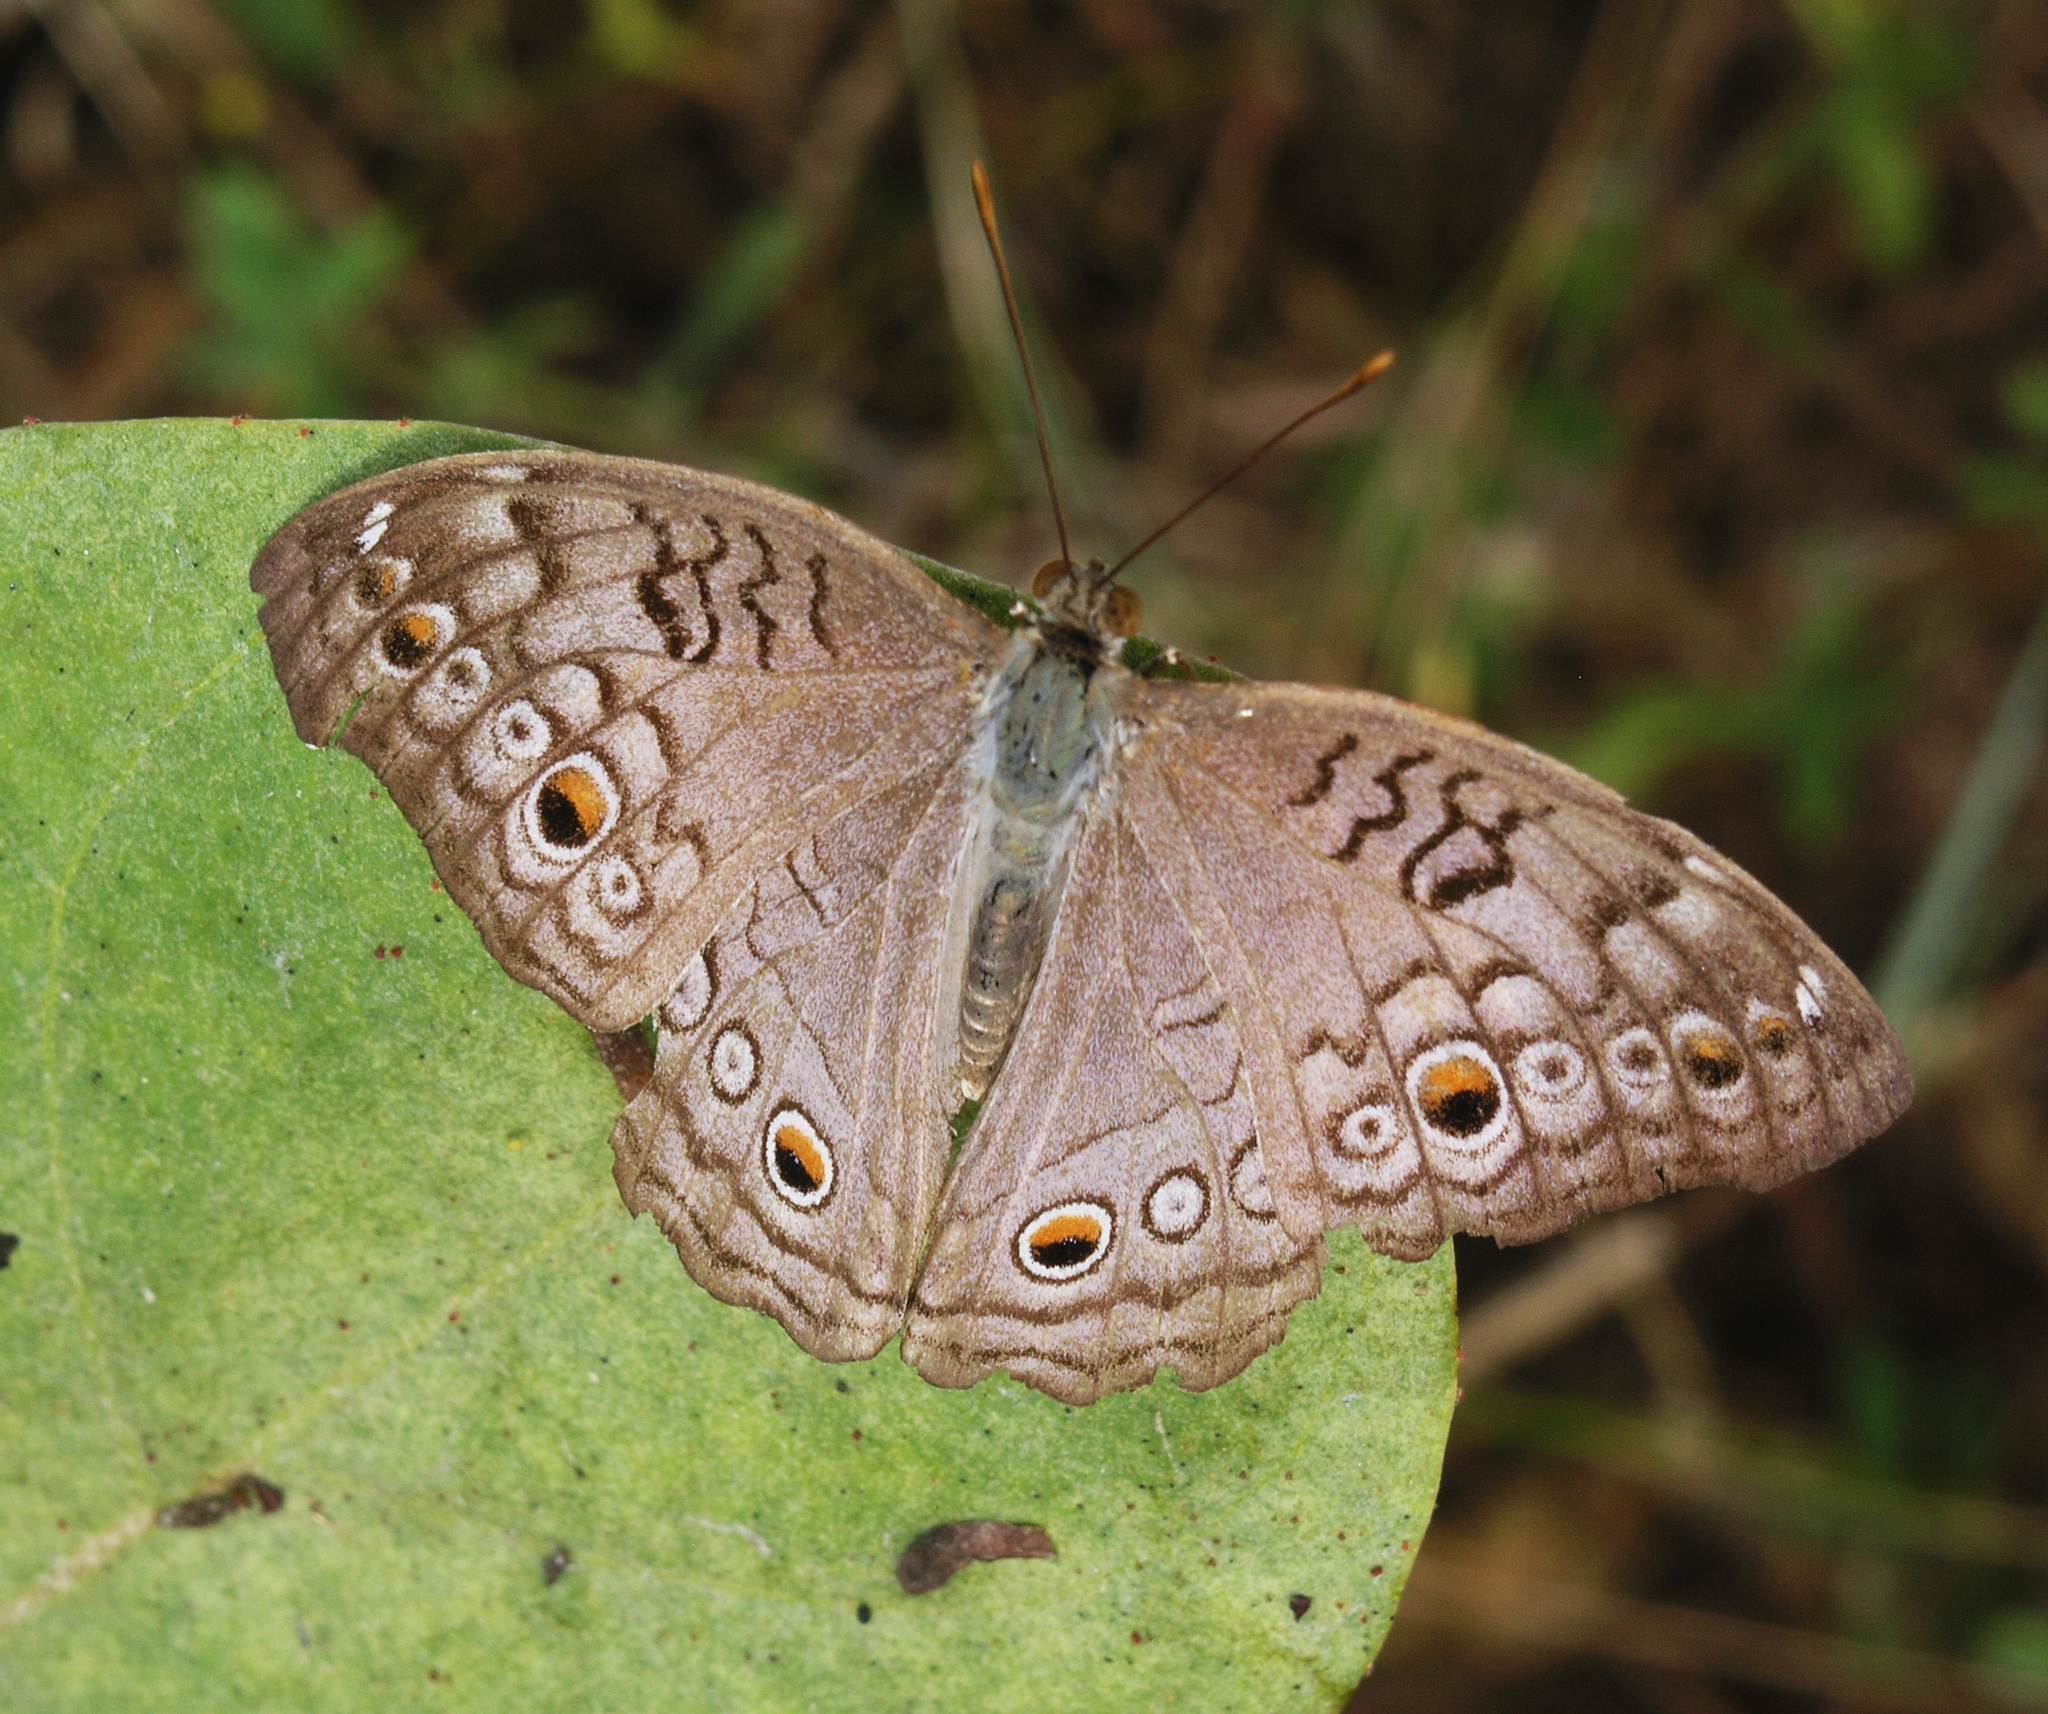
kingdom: Animalia
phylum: Arthropoda
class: Insecta
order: Lepidoptera
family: Nymphalidae
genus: Junonia
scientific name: Junonia atlites
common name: Grey pansy
